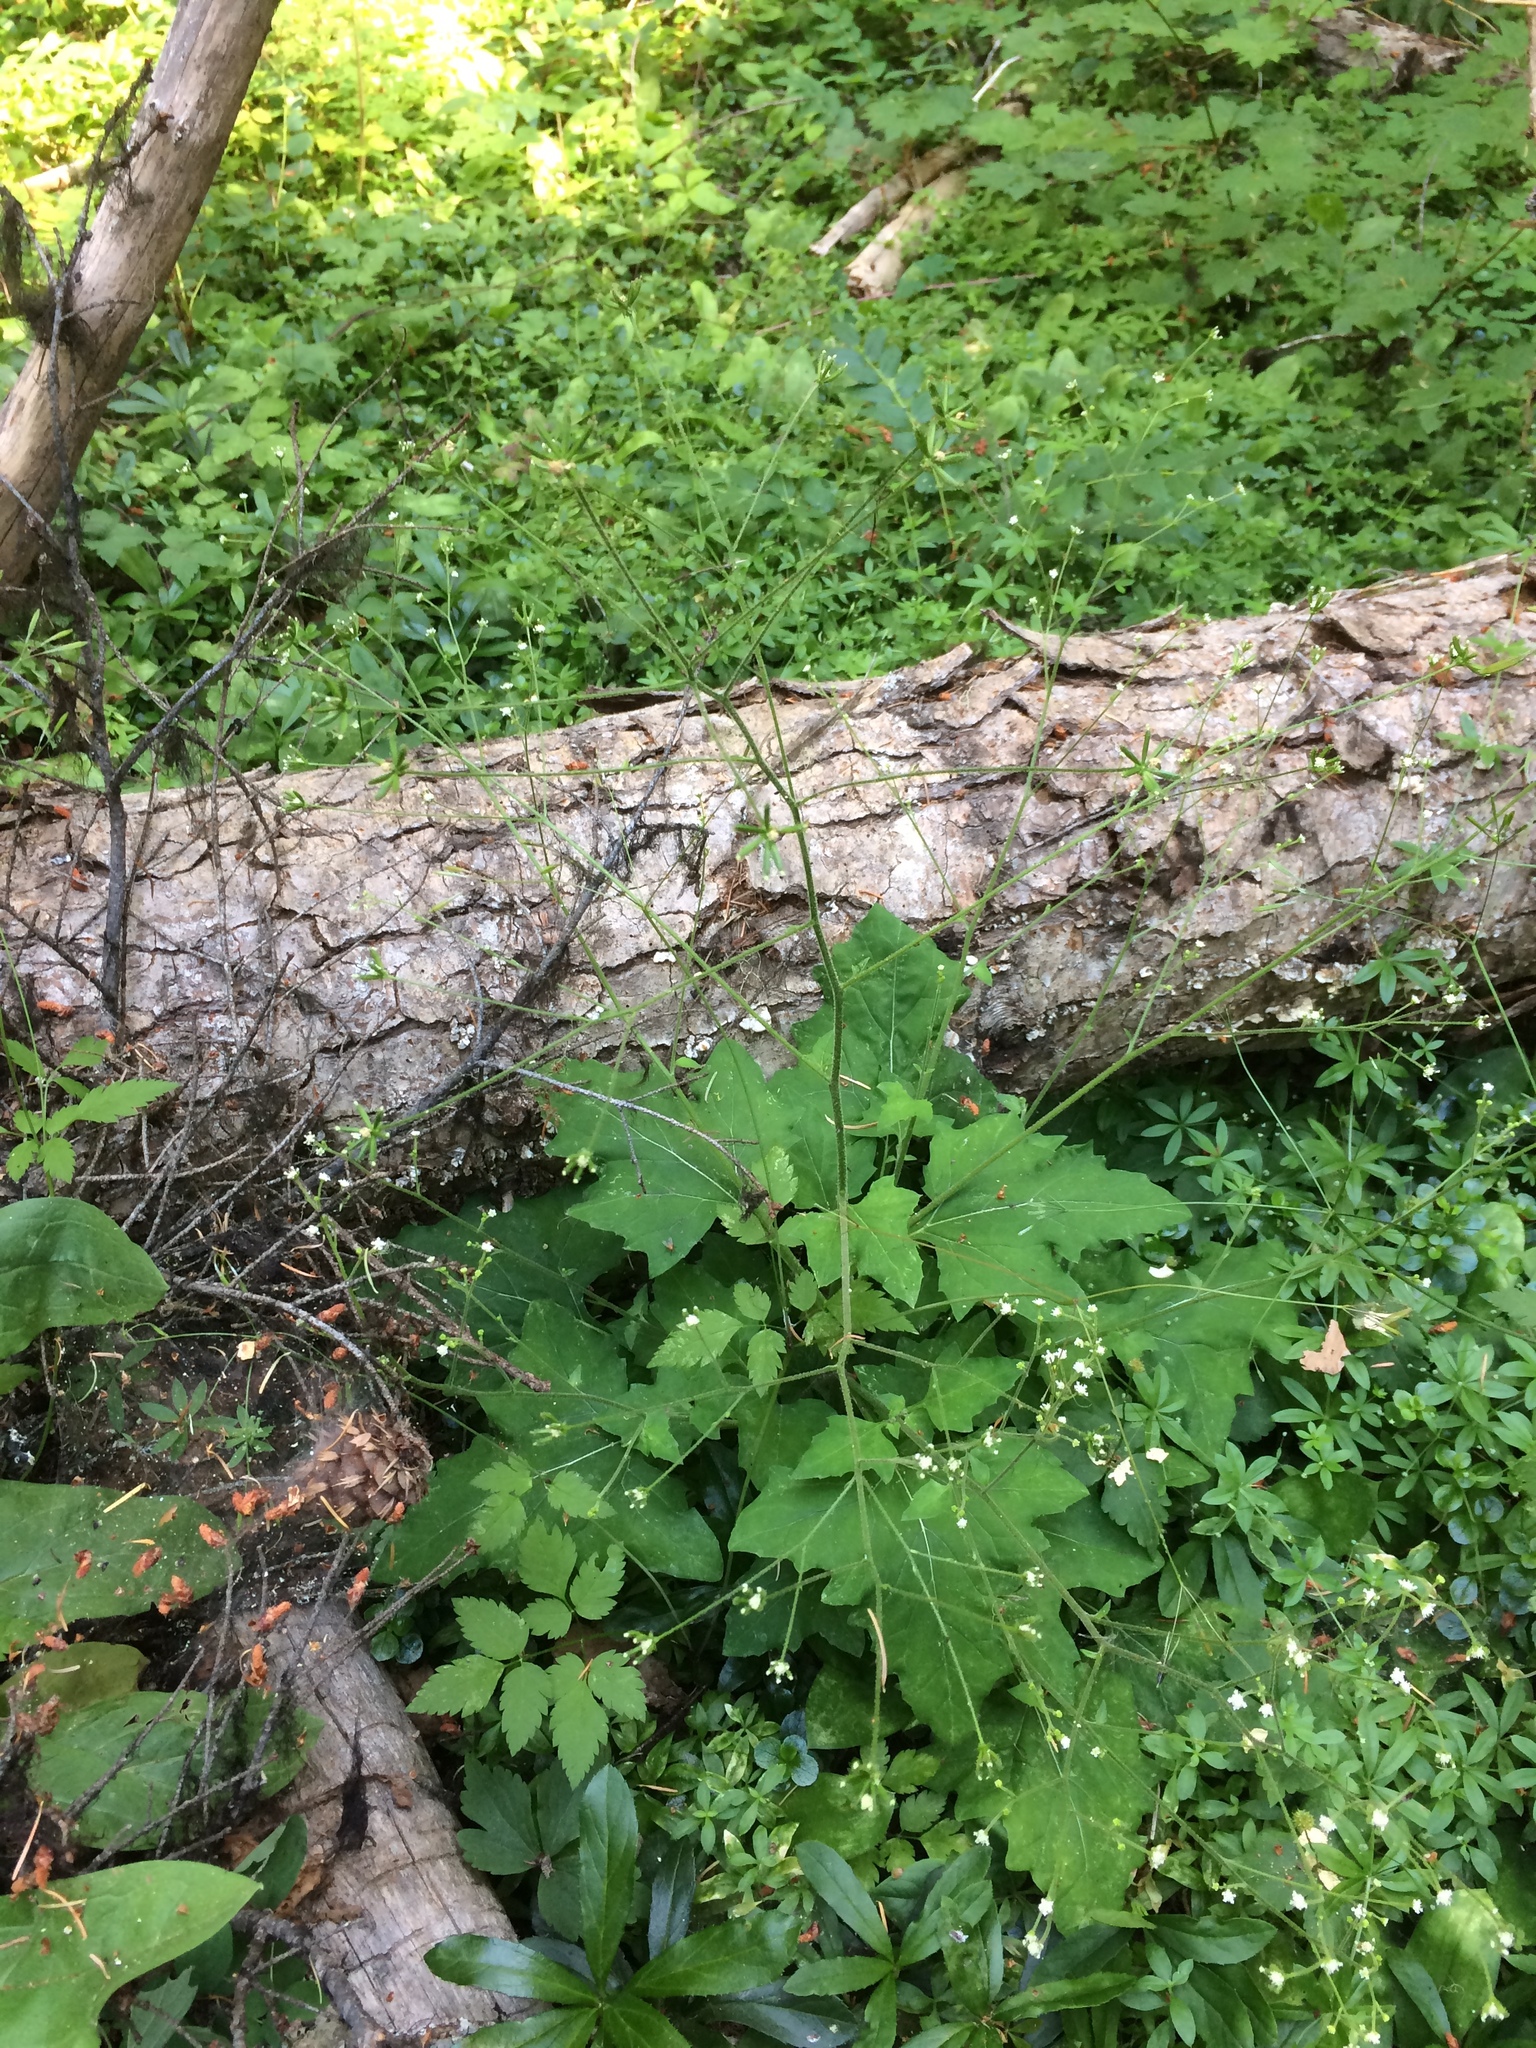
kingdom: Plantae
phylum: Tracheophyta
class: Magnoliopsida
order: Asterales
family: Asteraceae
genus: Adenocaulon
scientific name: Adenocaulon bicolor
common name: Trailplant
